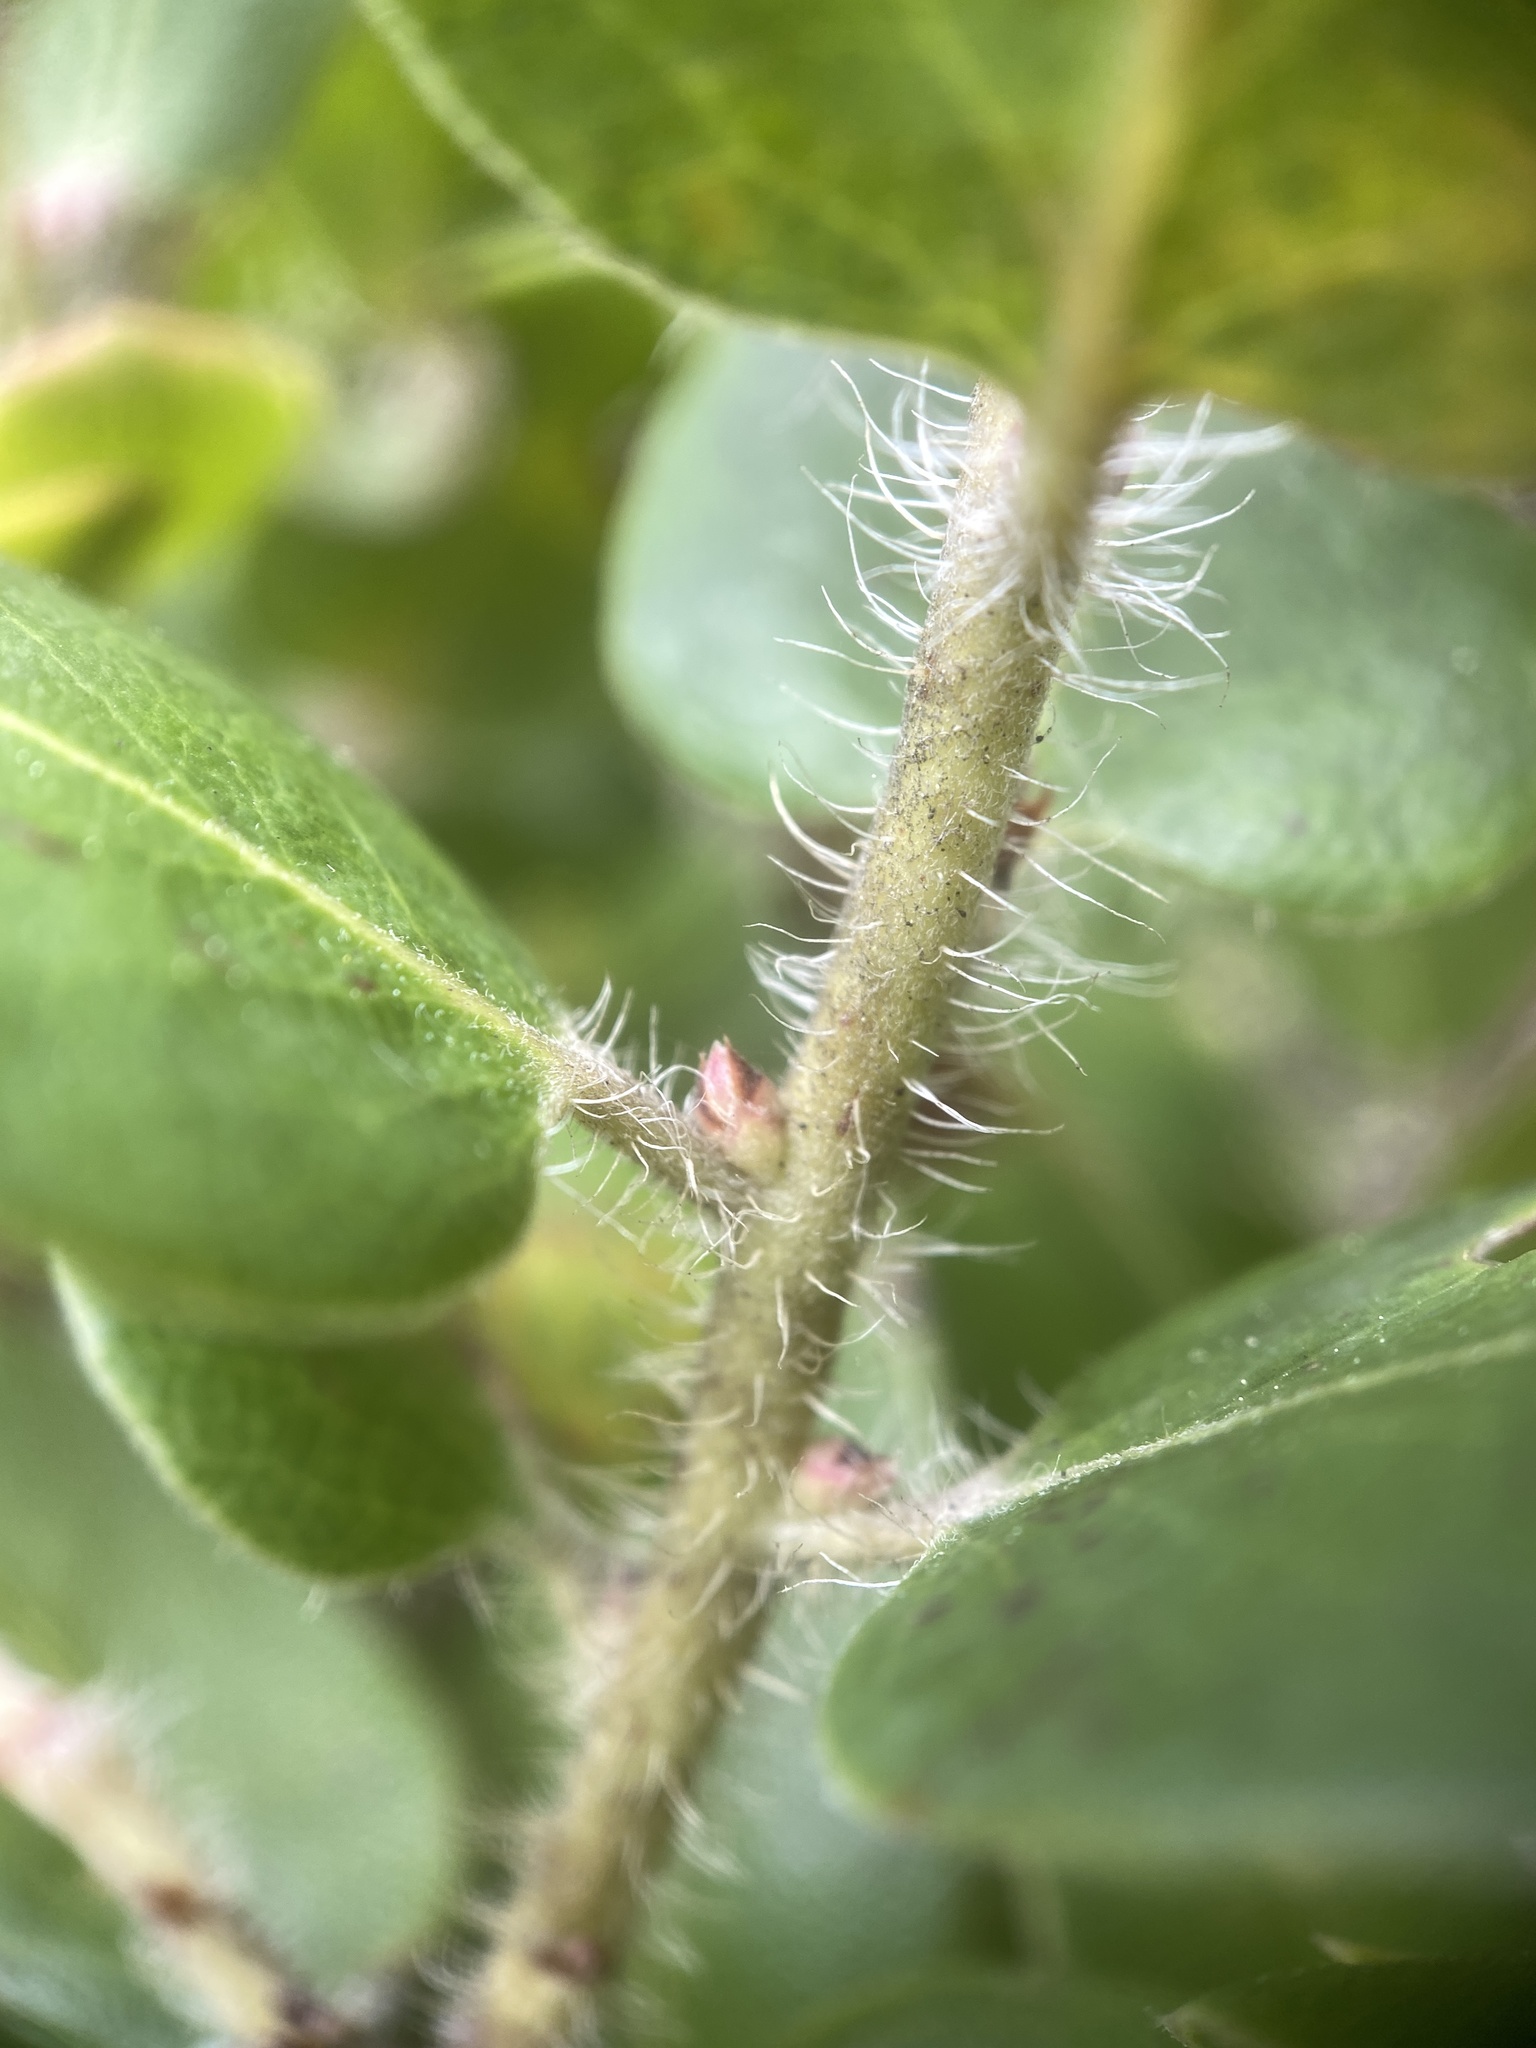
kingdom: Plantae
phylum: Tracheophyta
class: Magnoliopsida
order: Ericales
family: Ericaceae
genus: Arctostaphylos
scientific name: Arctostaphylos crustacea
